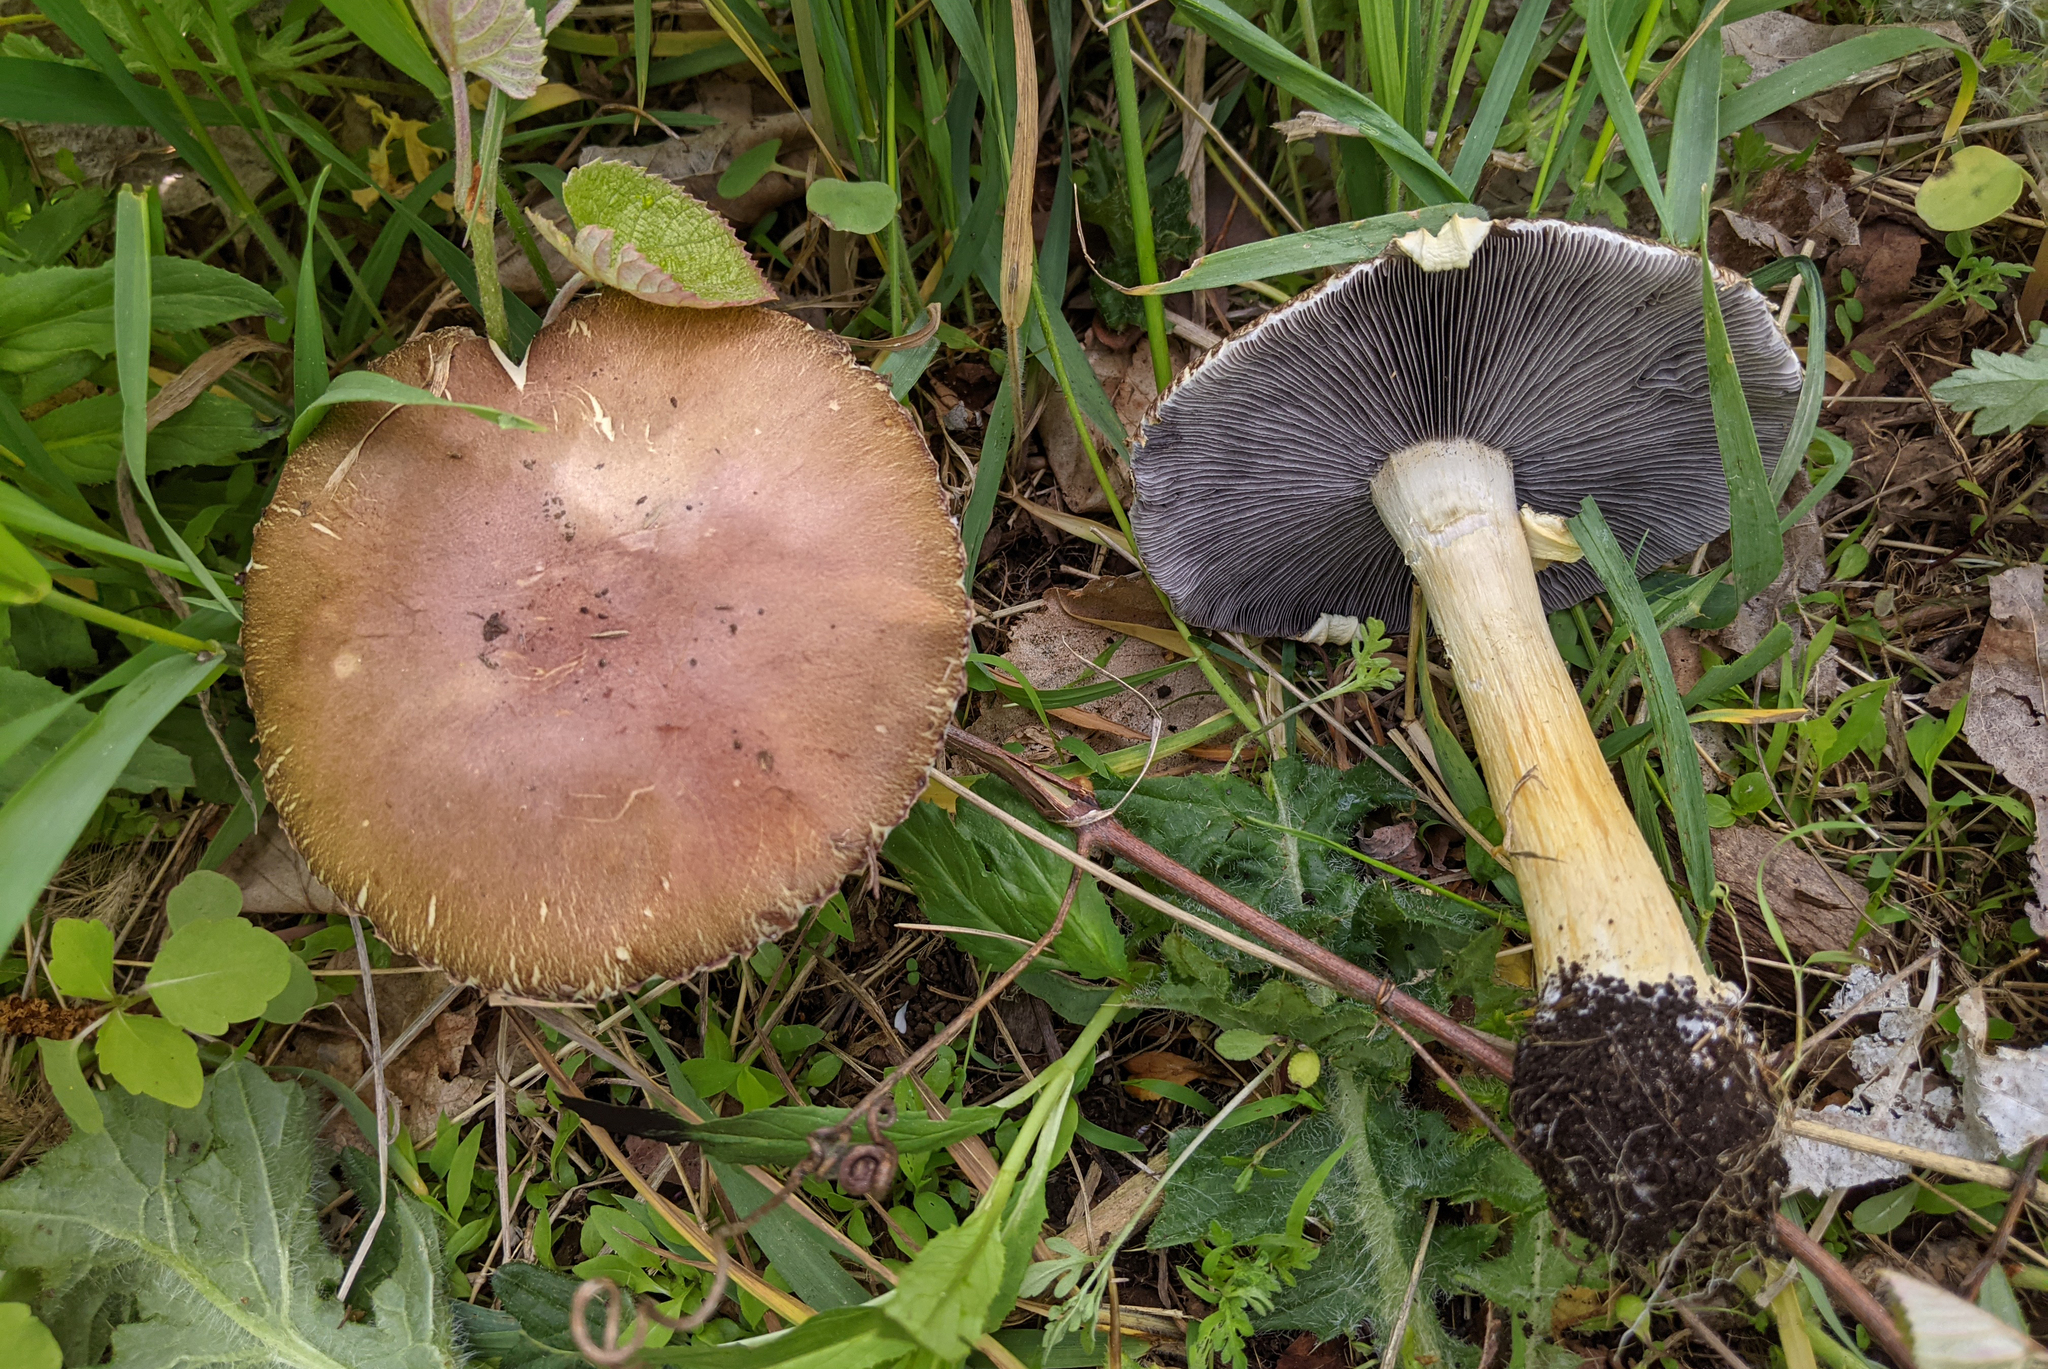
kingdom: Fungi
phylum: Basidiomycota
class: Agaricomycetes
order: Agaricales
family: Strophariaceae
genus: Stropharia
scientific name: Stropharia rugosoannulata
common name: Wine roundhead
